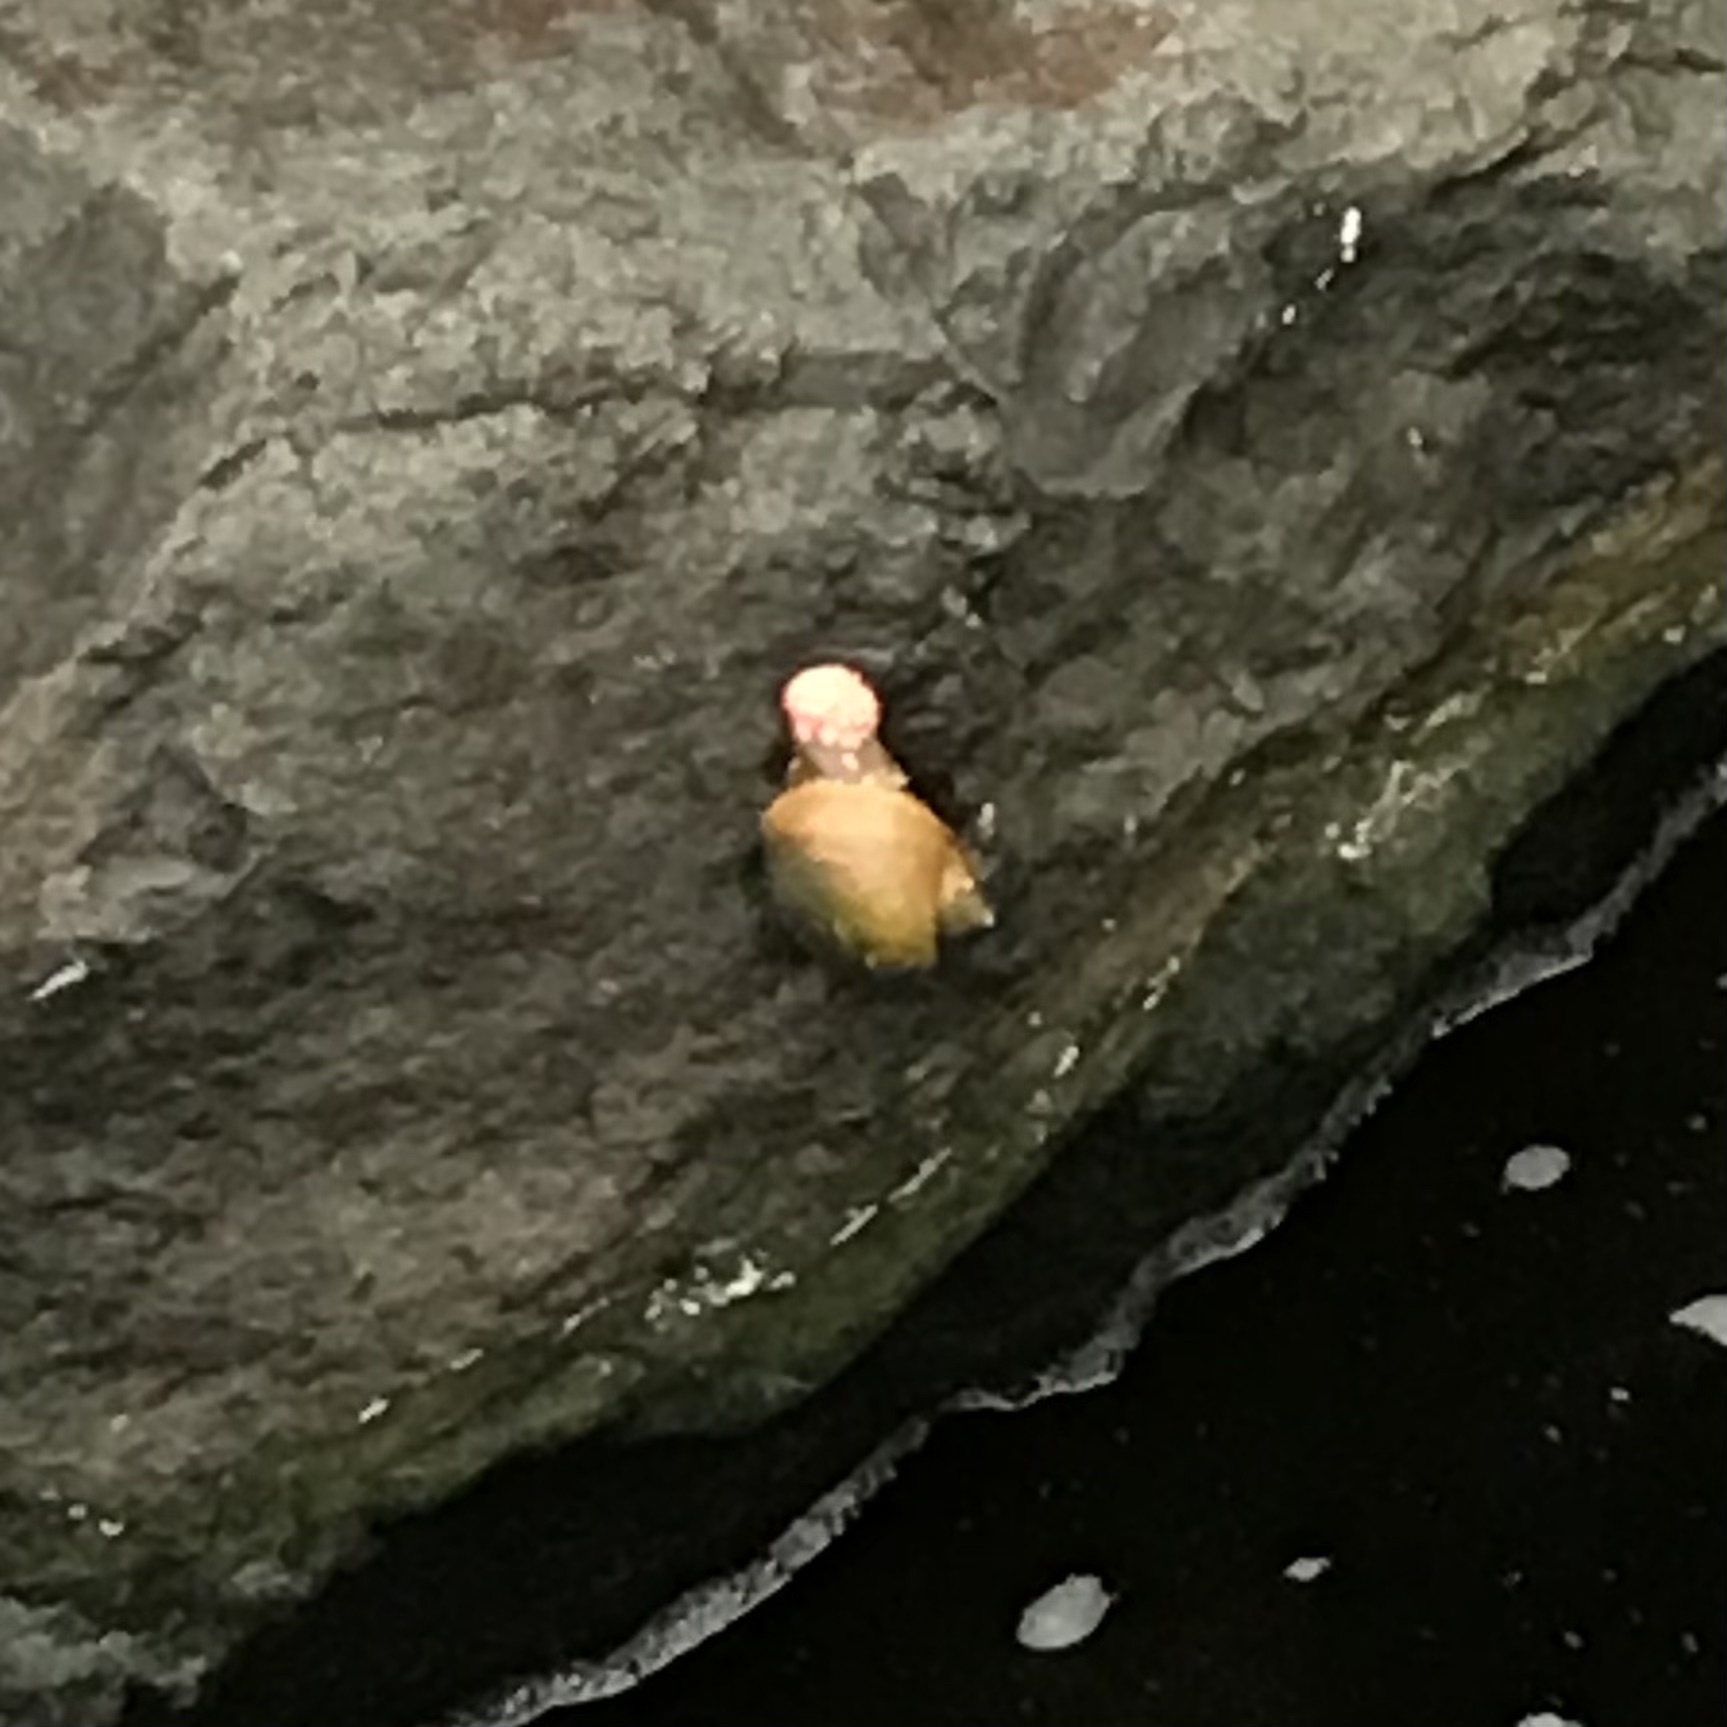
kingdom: Animalia
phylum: Mollusca
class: Gastropoda
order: Architaenioglossa
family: Ampullariidae
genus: Pomacea
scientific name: Pomacea canaliculata
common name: Channeled applesnail
